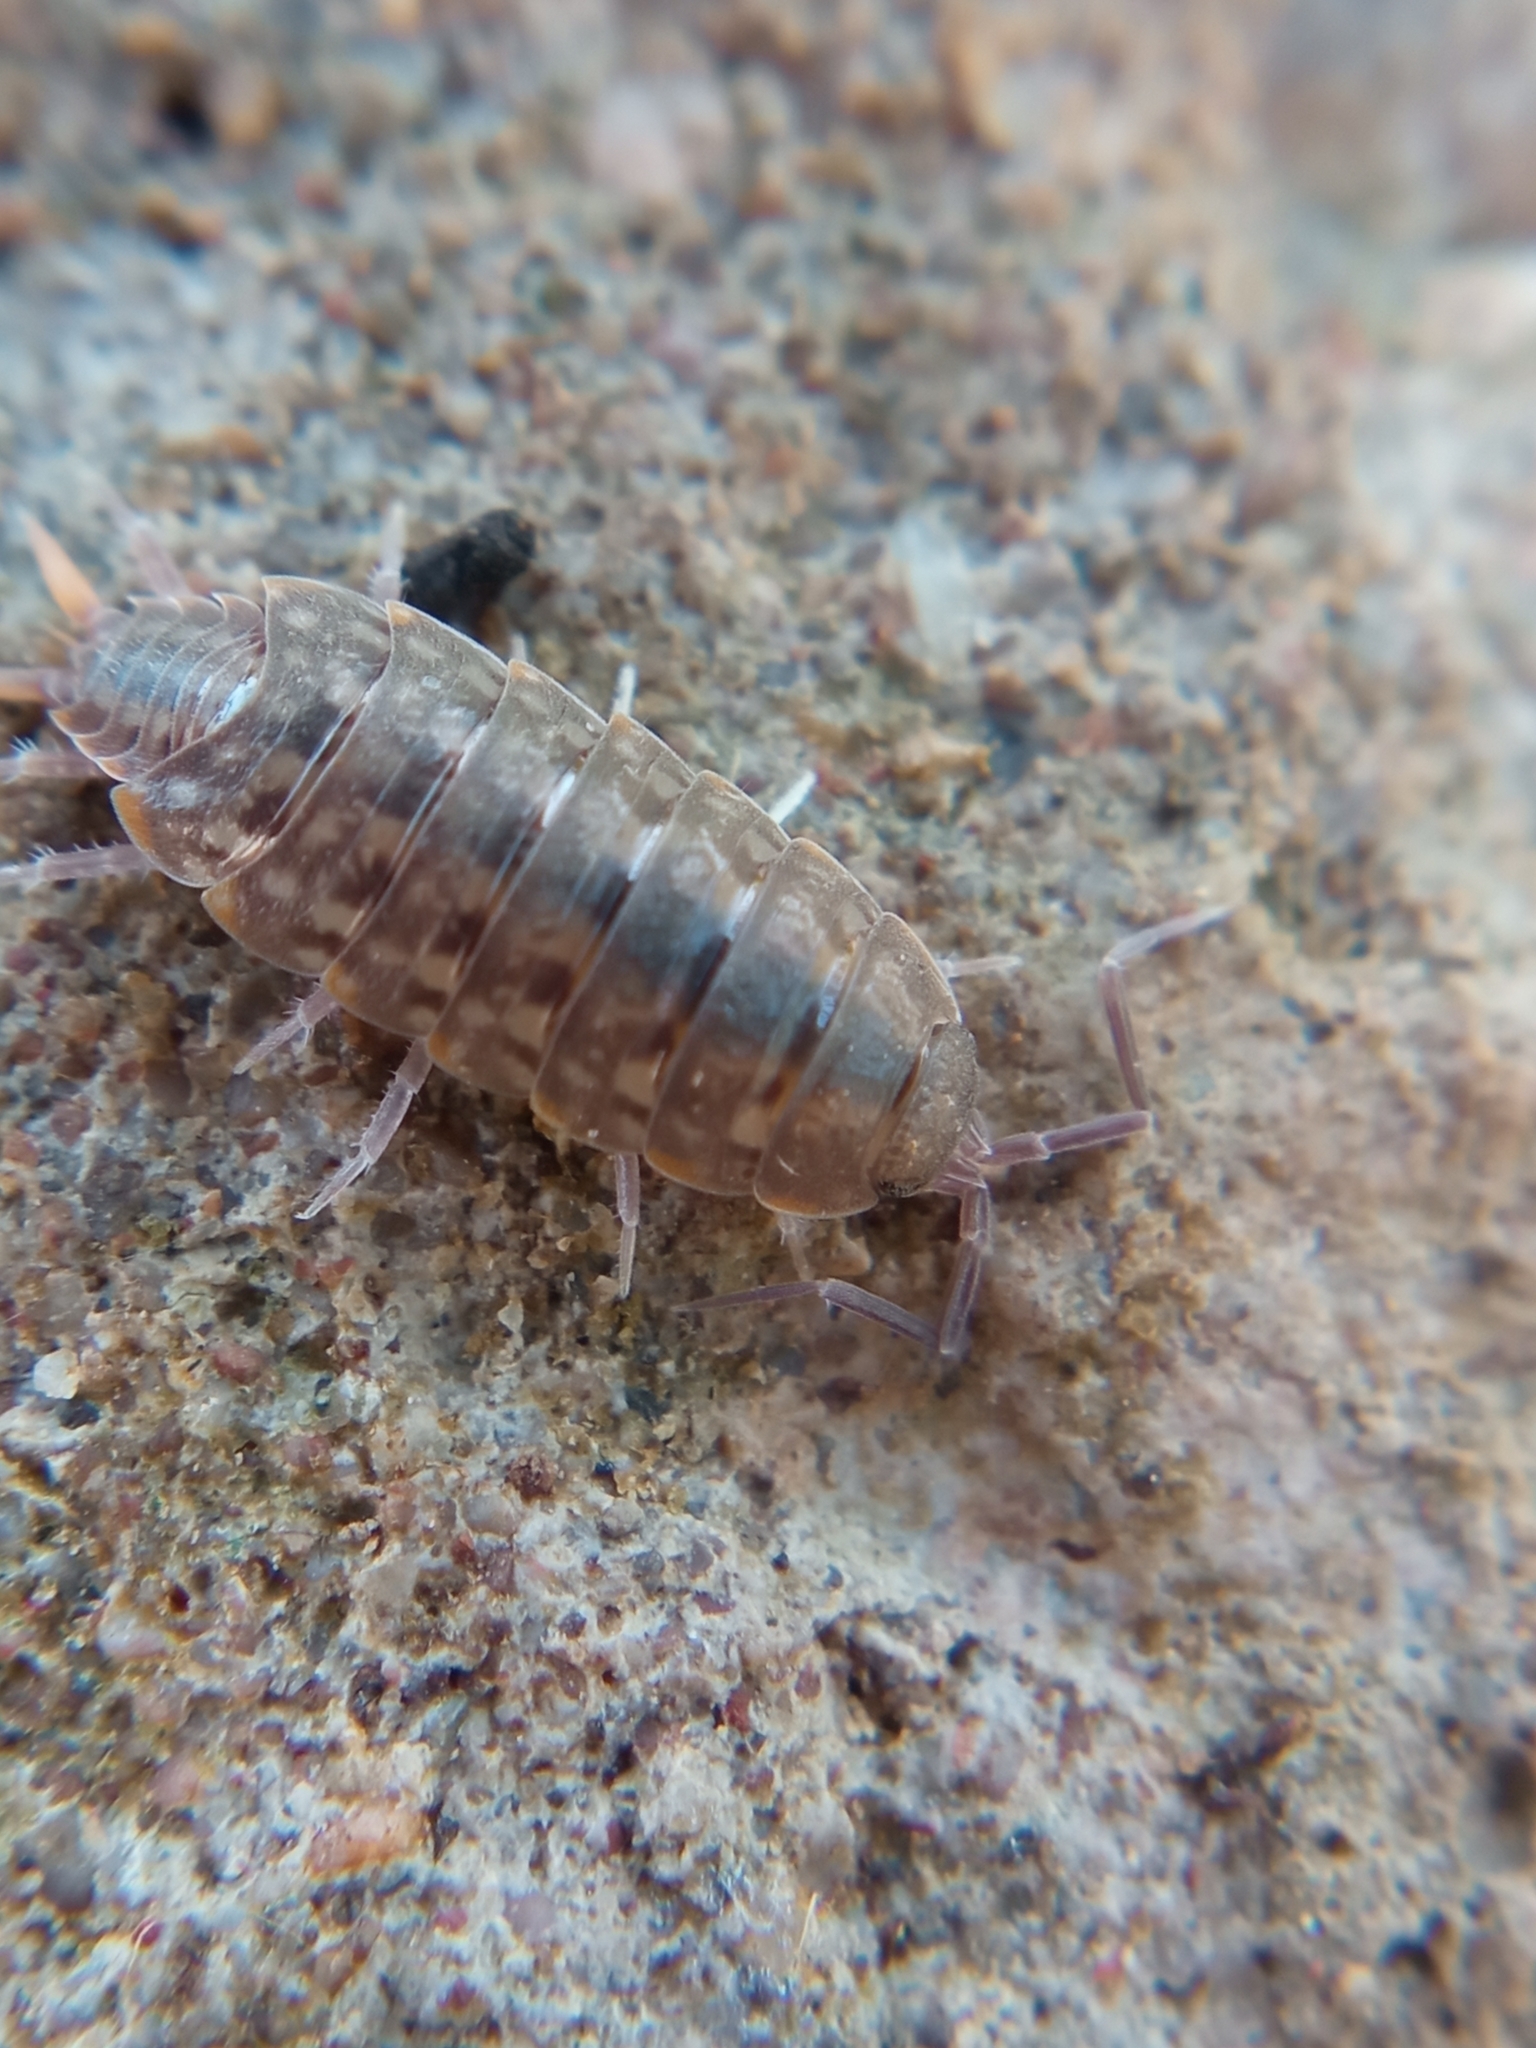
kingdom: Animalia
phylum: Arthropoda
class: Malacostraca
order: Isopoda
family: Agnaridae
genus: Orthometopon
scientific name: Orthometopon planum
